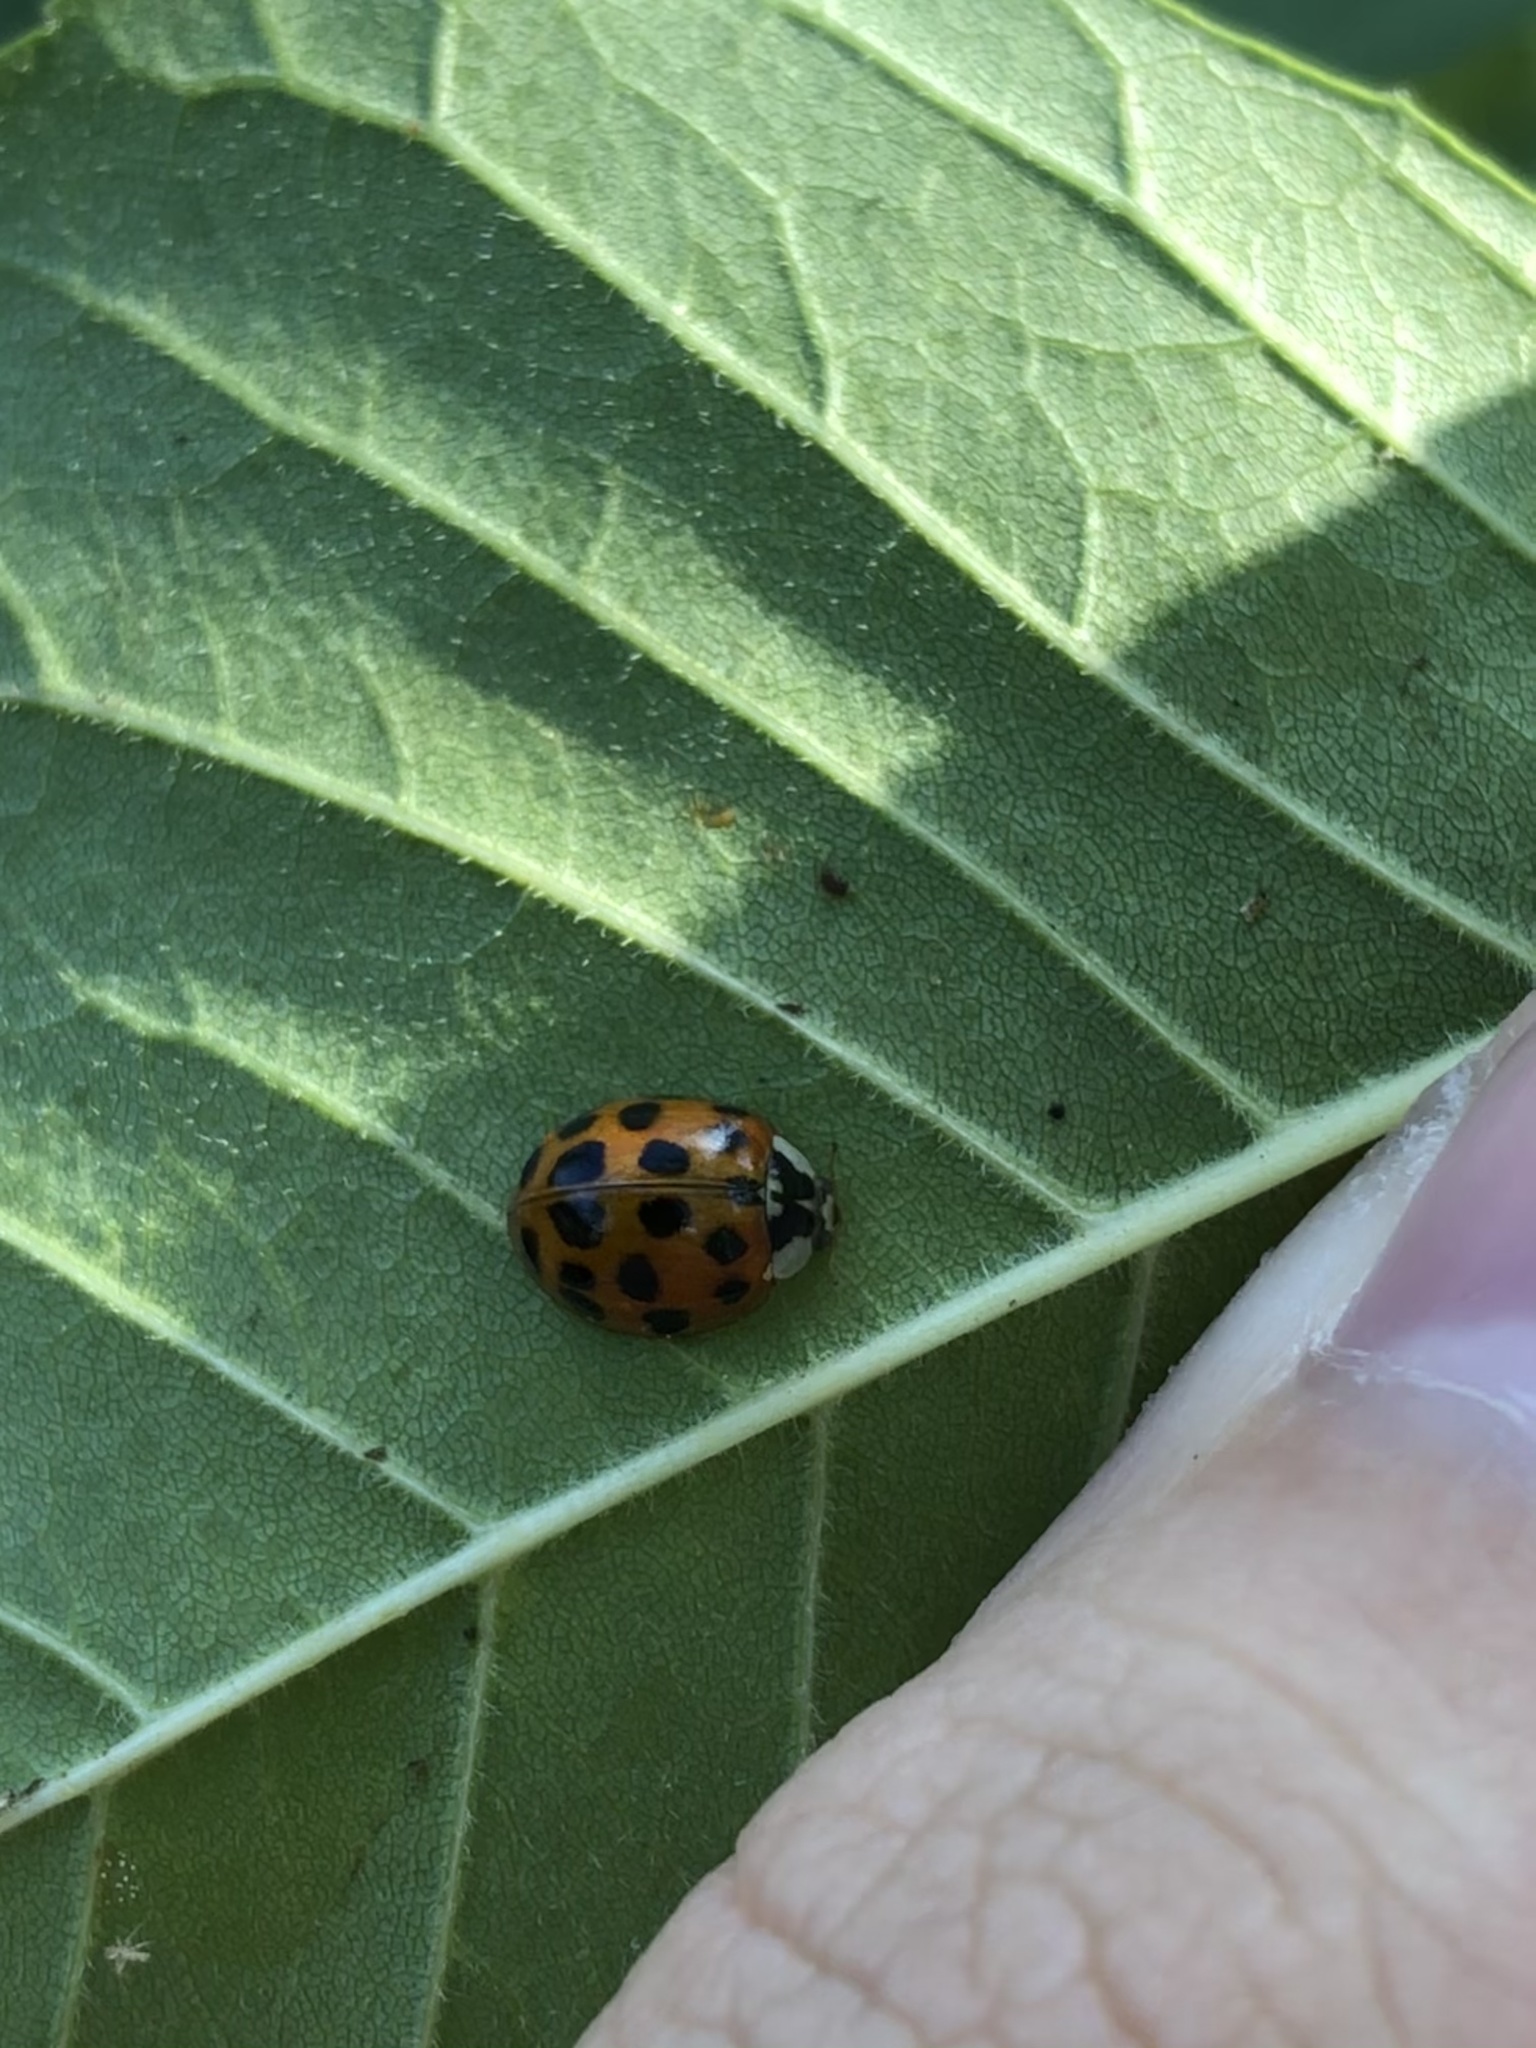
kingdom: Animalia
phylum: Arthropoda
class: Insecta
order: Coleoptera
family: Coccinellidae
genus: Harmonia
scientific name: Harmonia axyridis
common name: Harlequin ladybird
